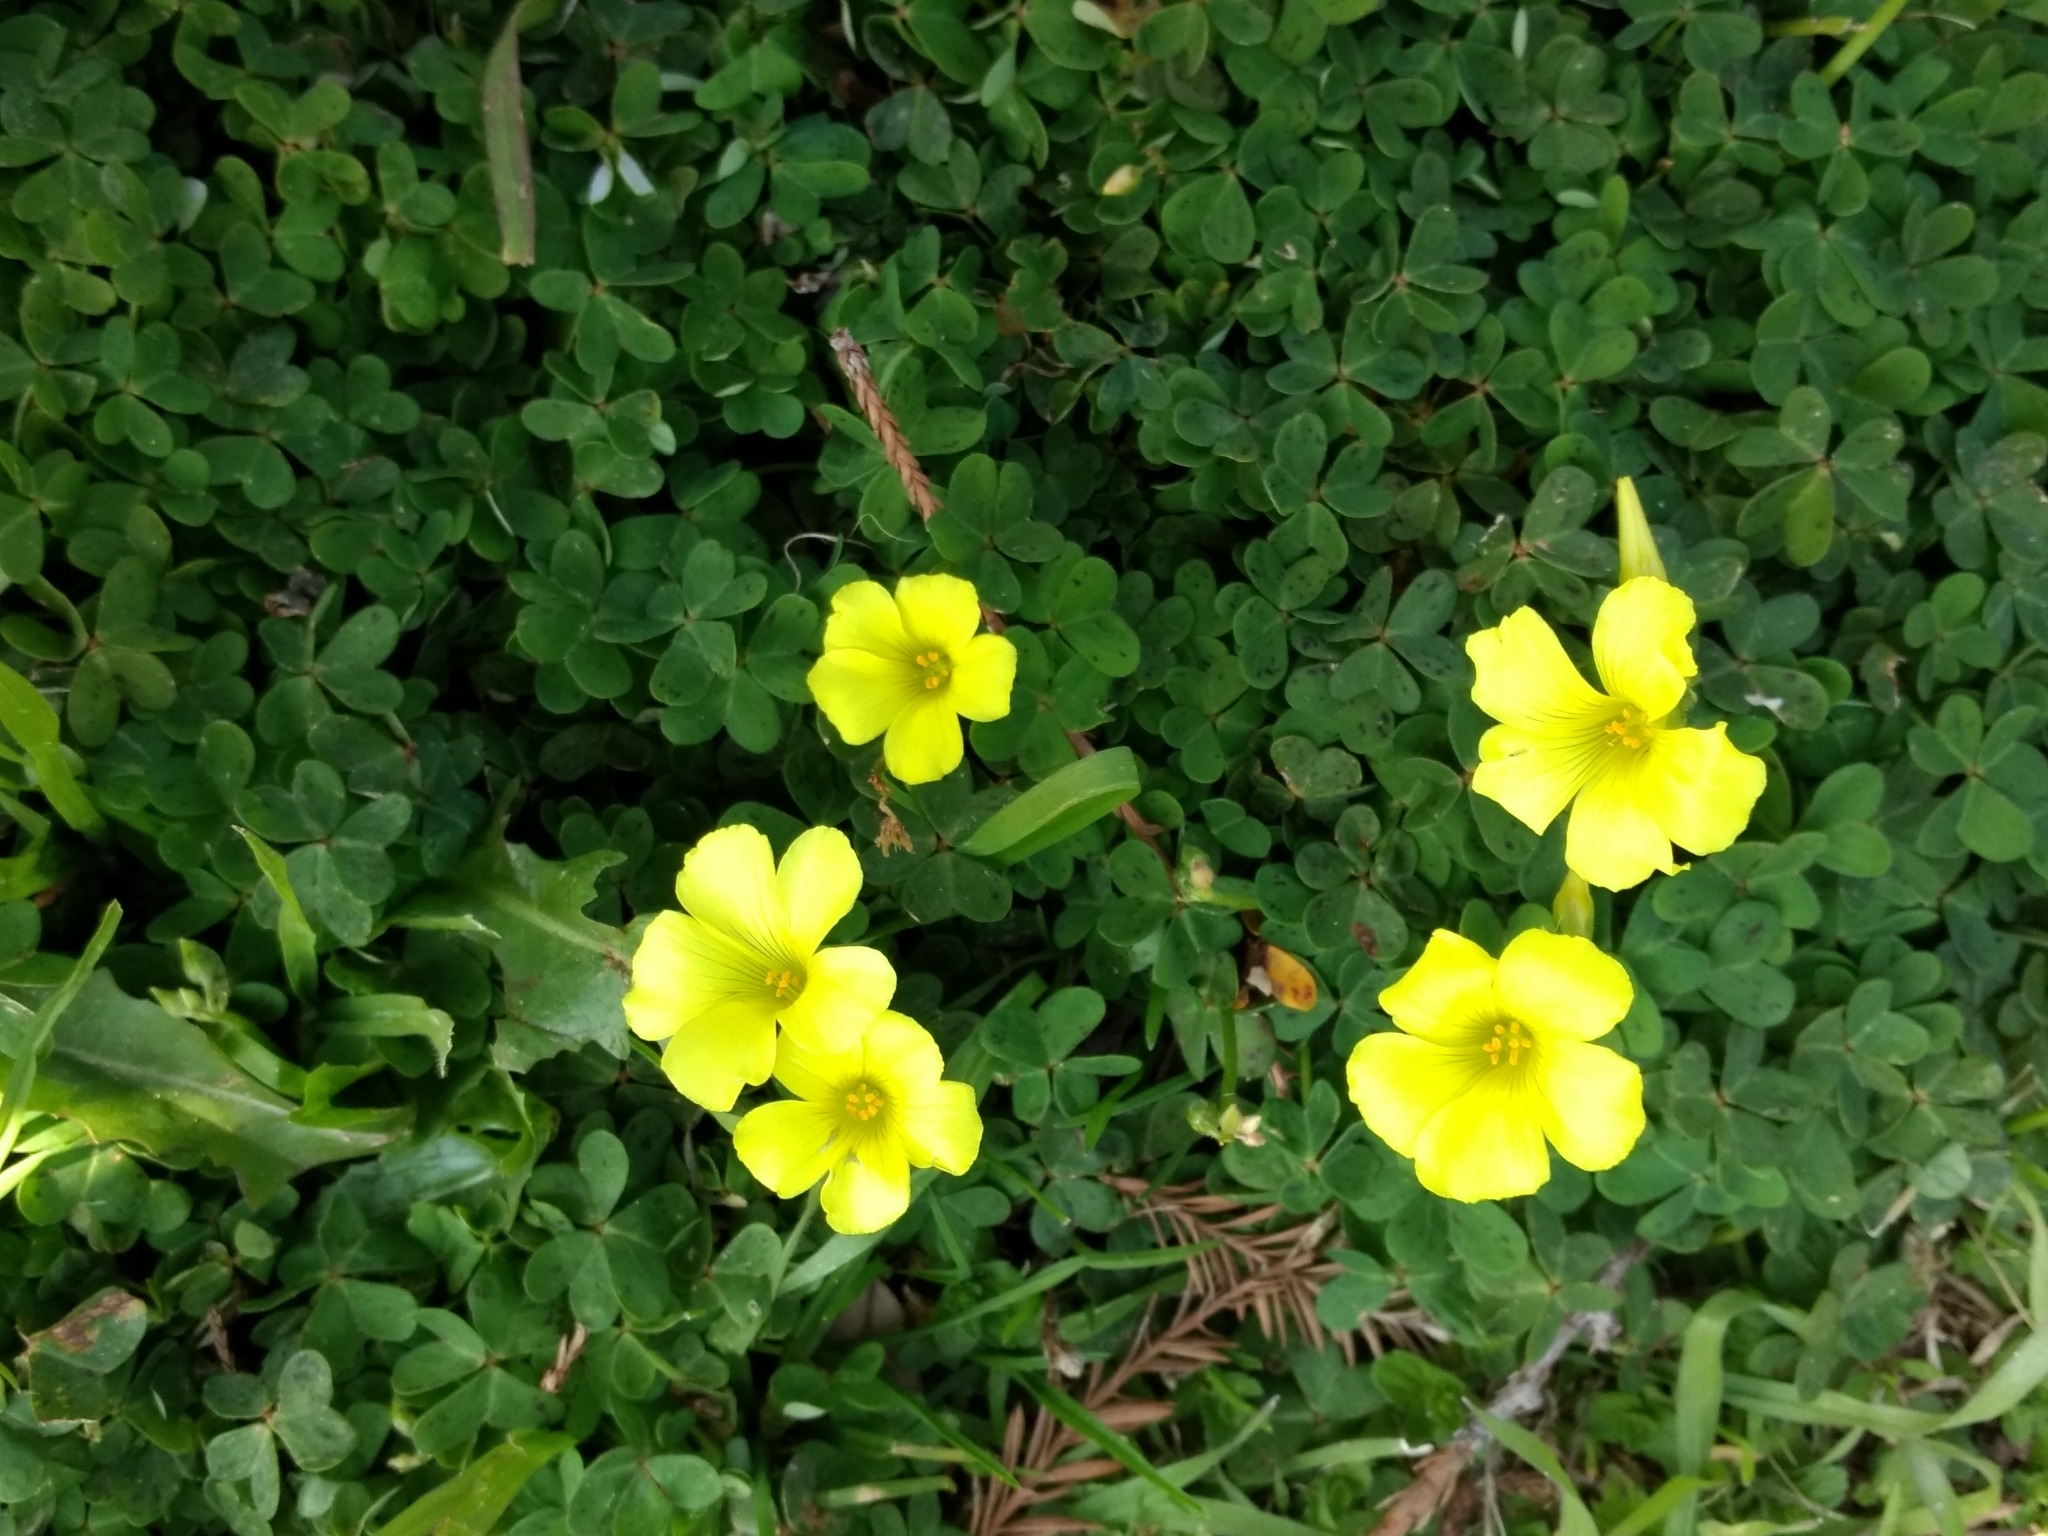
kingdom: Plantae
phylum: Tracheophyta
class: Magnoliopsida
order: Oxalidales
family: Oxalidaceae
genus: Oxalis
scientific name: Oxalis pes-caprae
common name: Bermuda-buttercup
